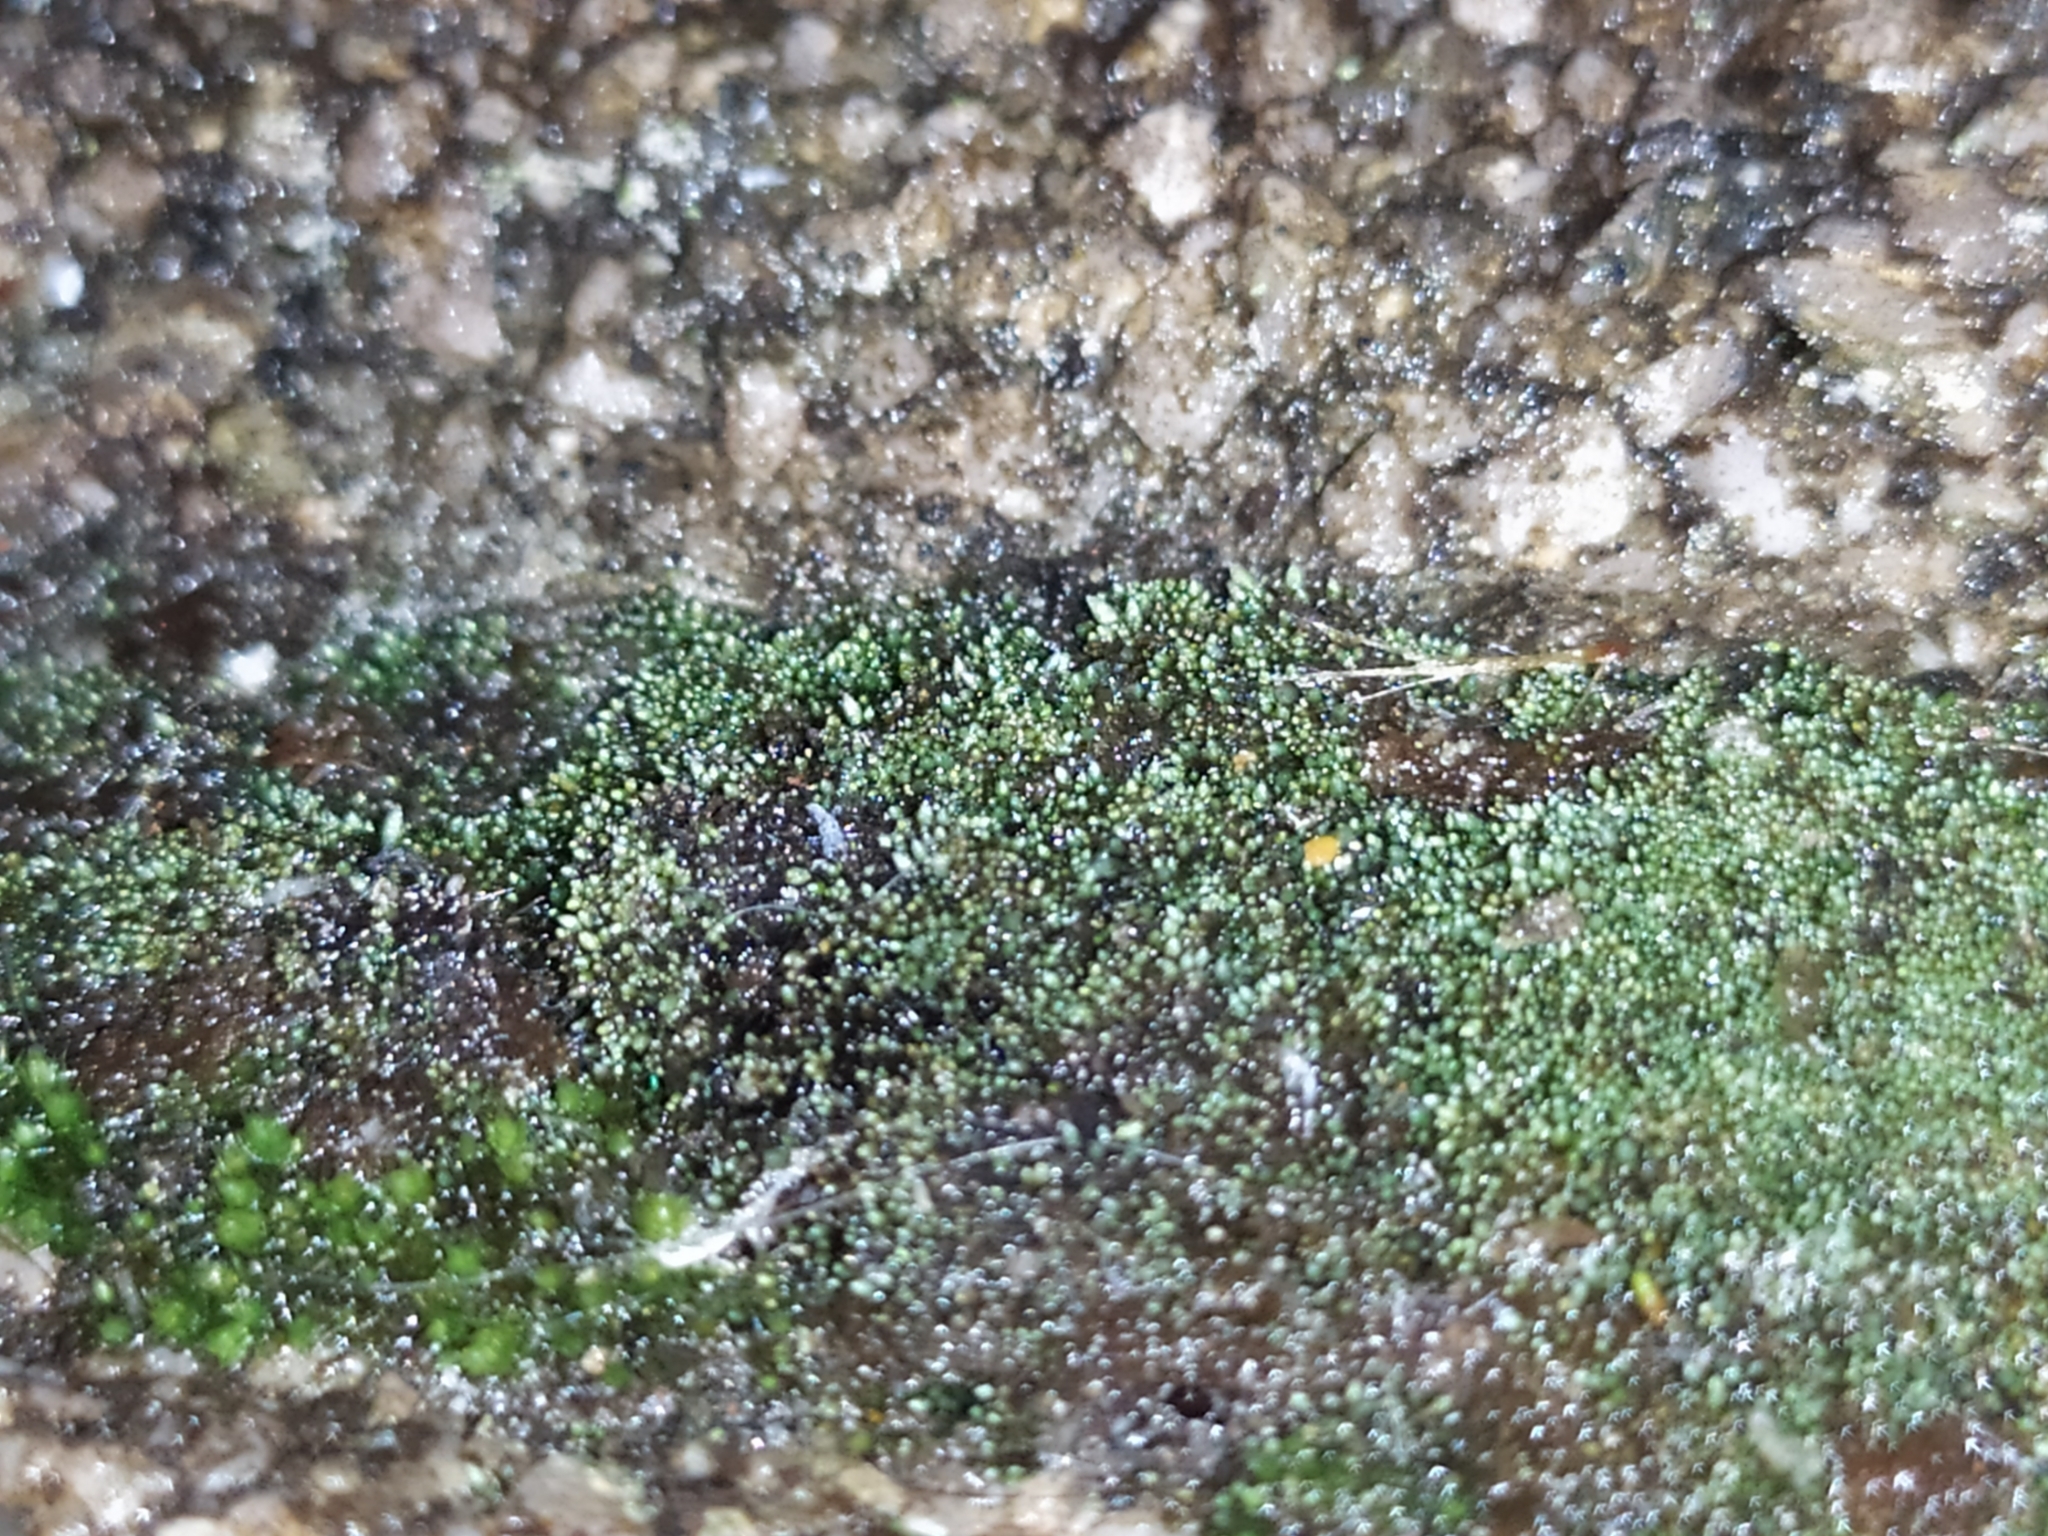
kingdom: Plantae
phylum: Bryophyta
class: Bryopsida
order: Bryales
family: Bryaceae
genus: Bryum
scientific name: Bryum argenteum
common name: Silver-moss
